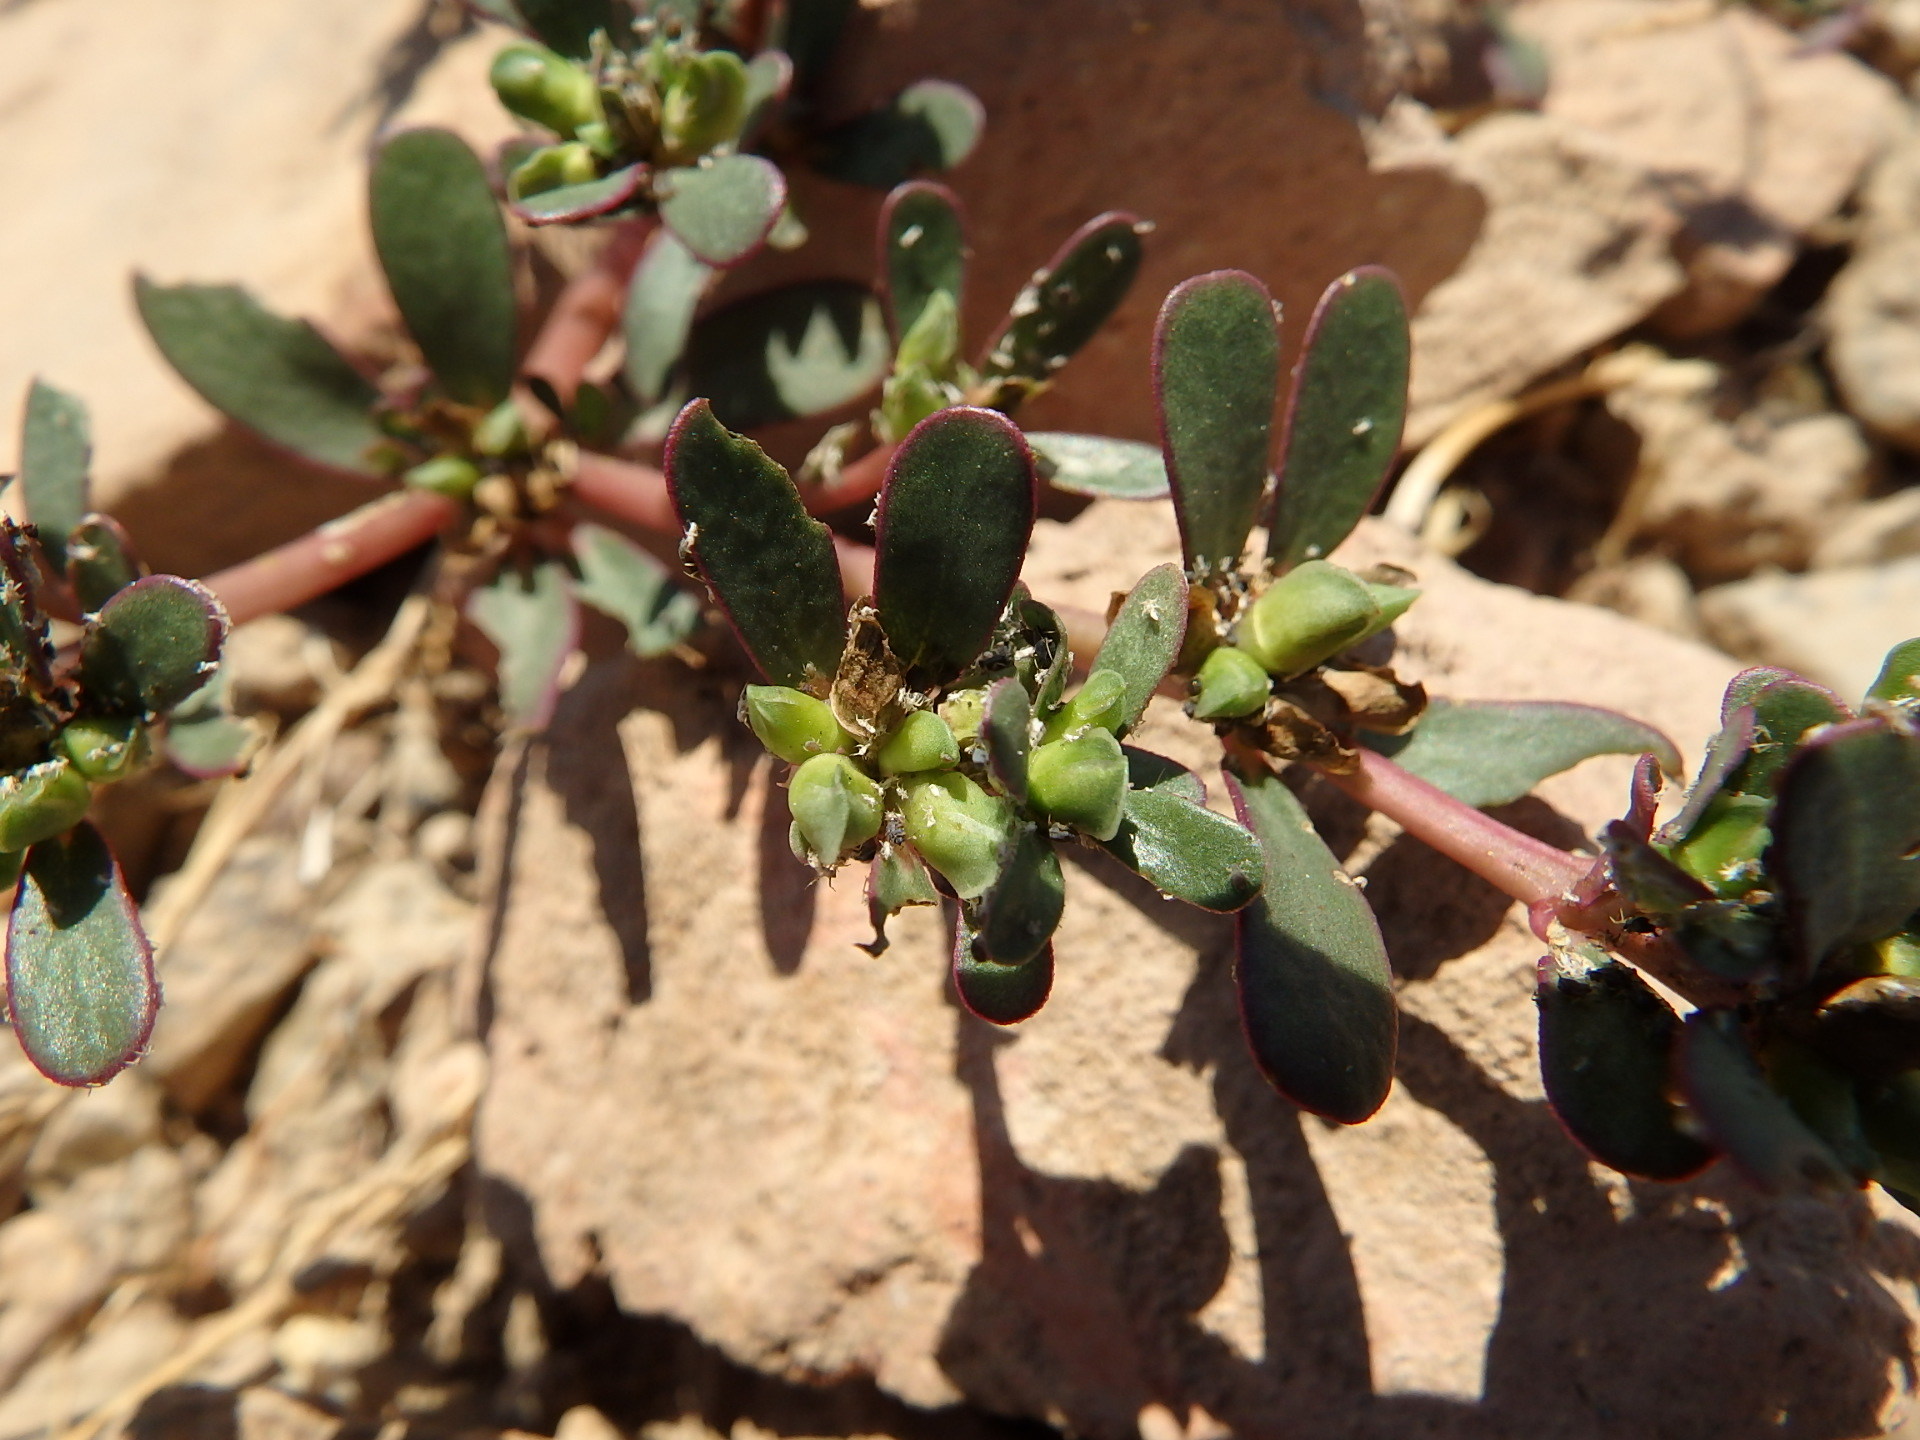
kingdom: Plantae
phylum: Tracheophyta
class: Magnoliopsida
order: Caryophyllales
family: Portulacaceae
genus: Portulaca
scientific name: Portulaca oleracea
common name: Common purslane
